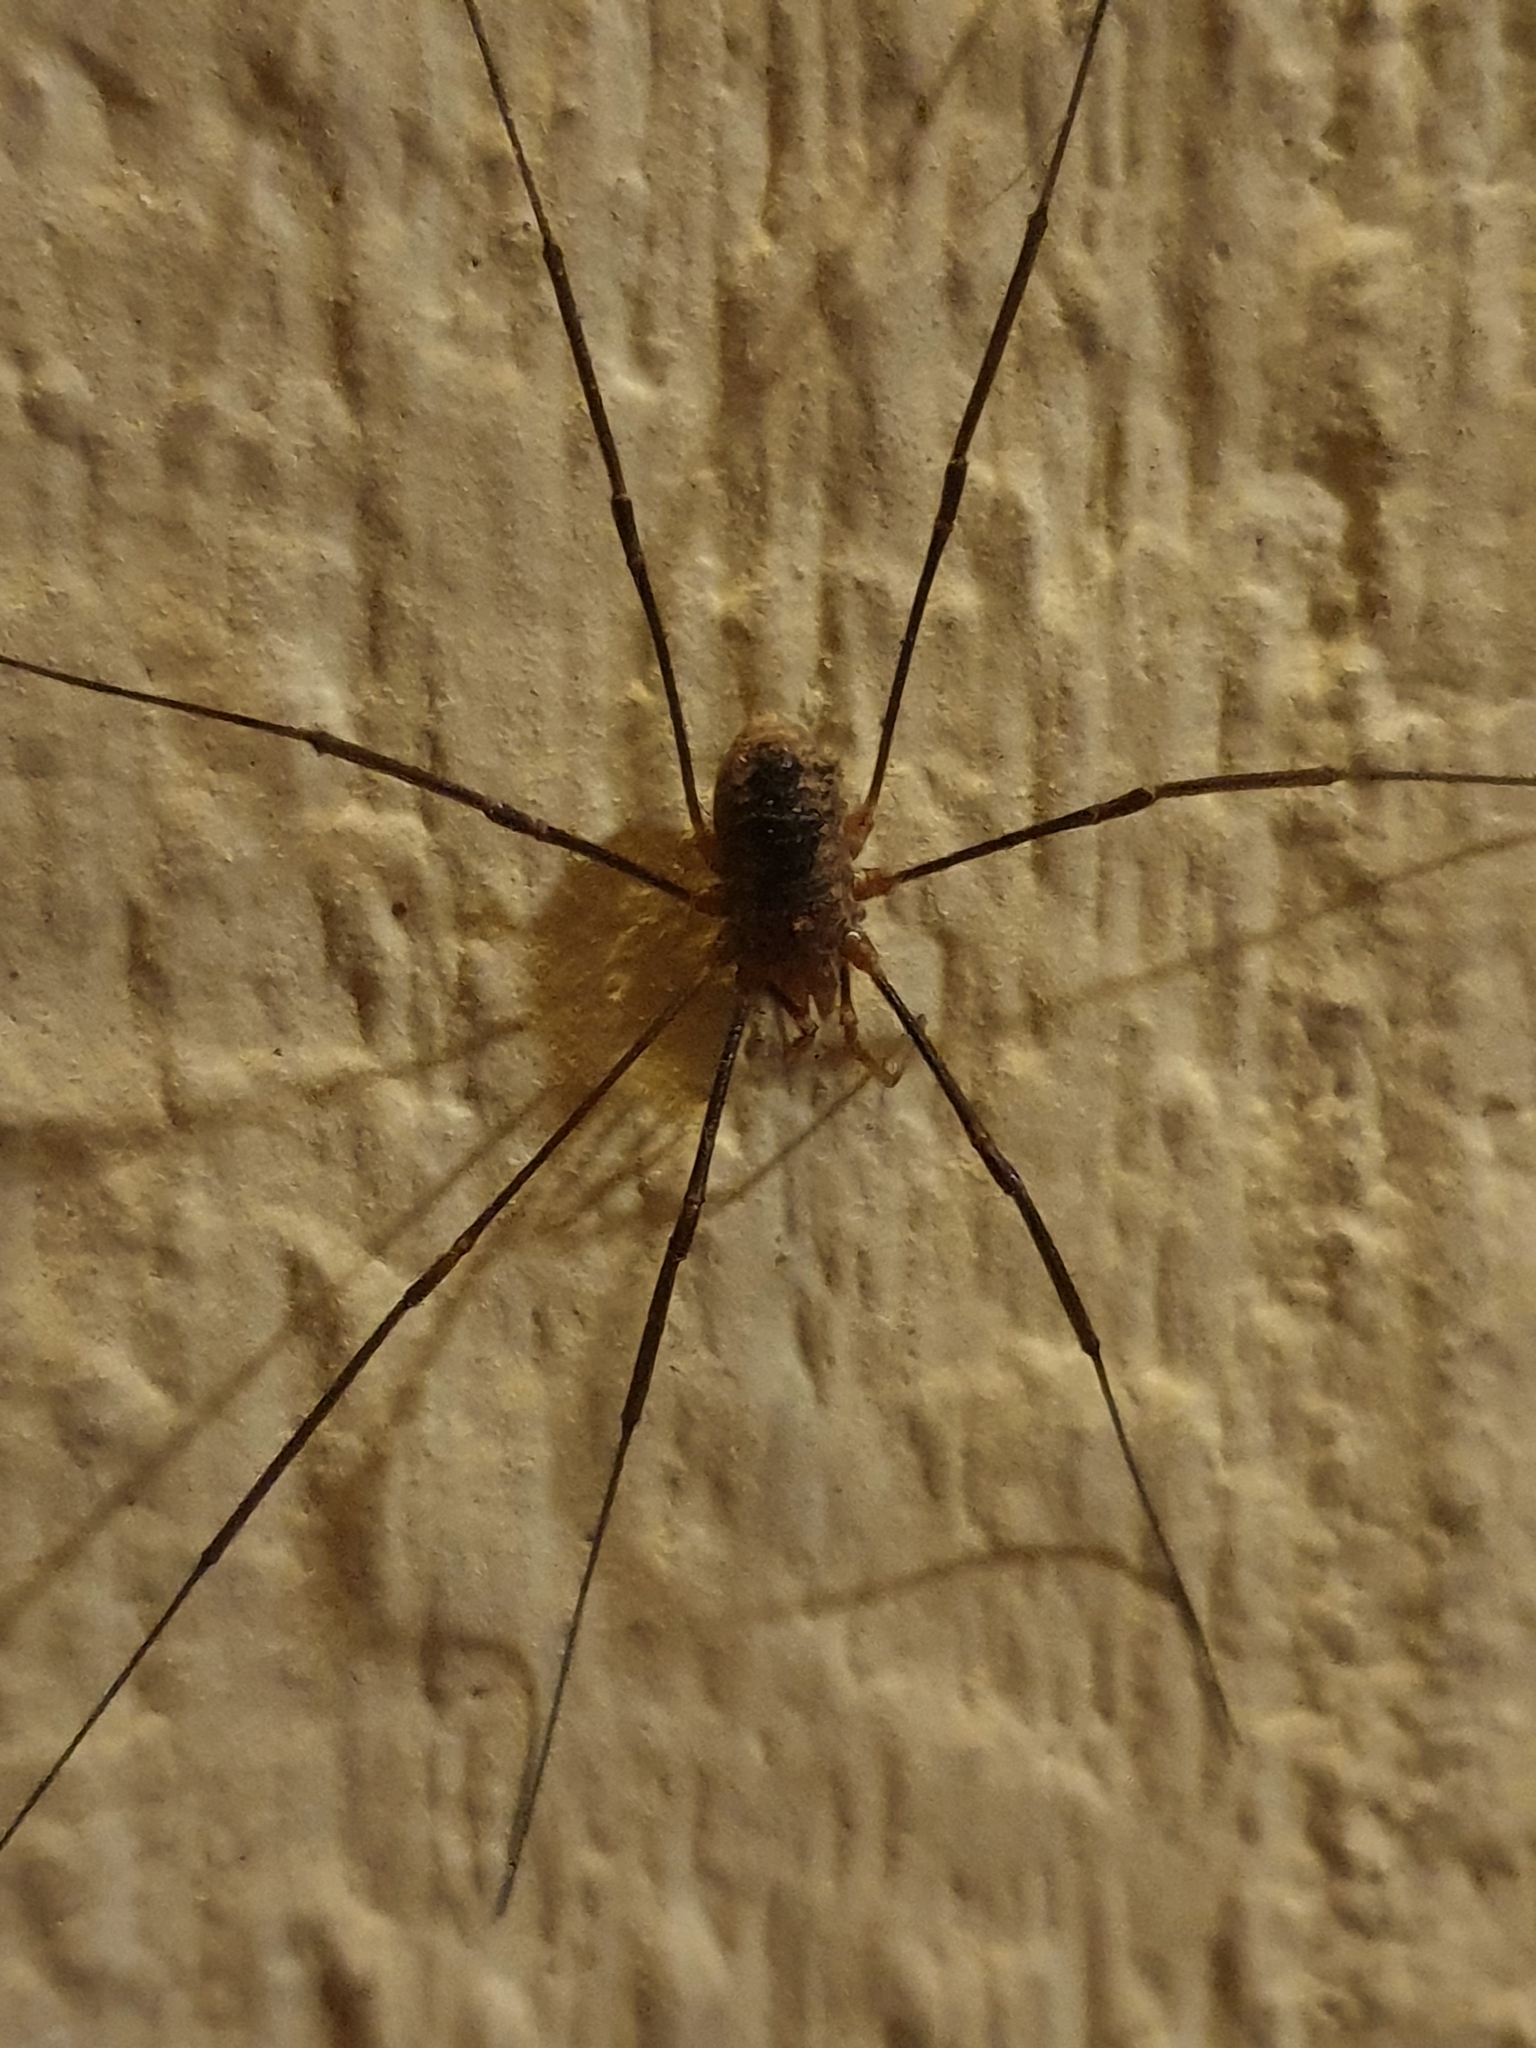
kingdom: Animalia
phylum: Arthropoda
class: Arachnida
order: Opiliones
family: Phalangiidae
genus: Phalangium
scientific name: Phalangium opilio
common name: Daddy longleg
